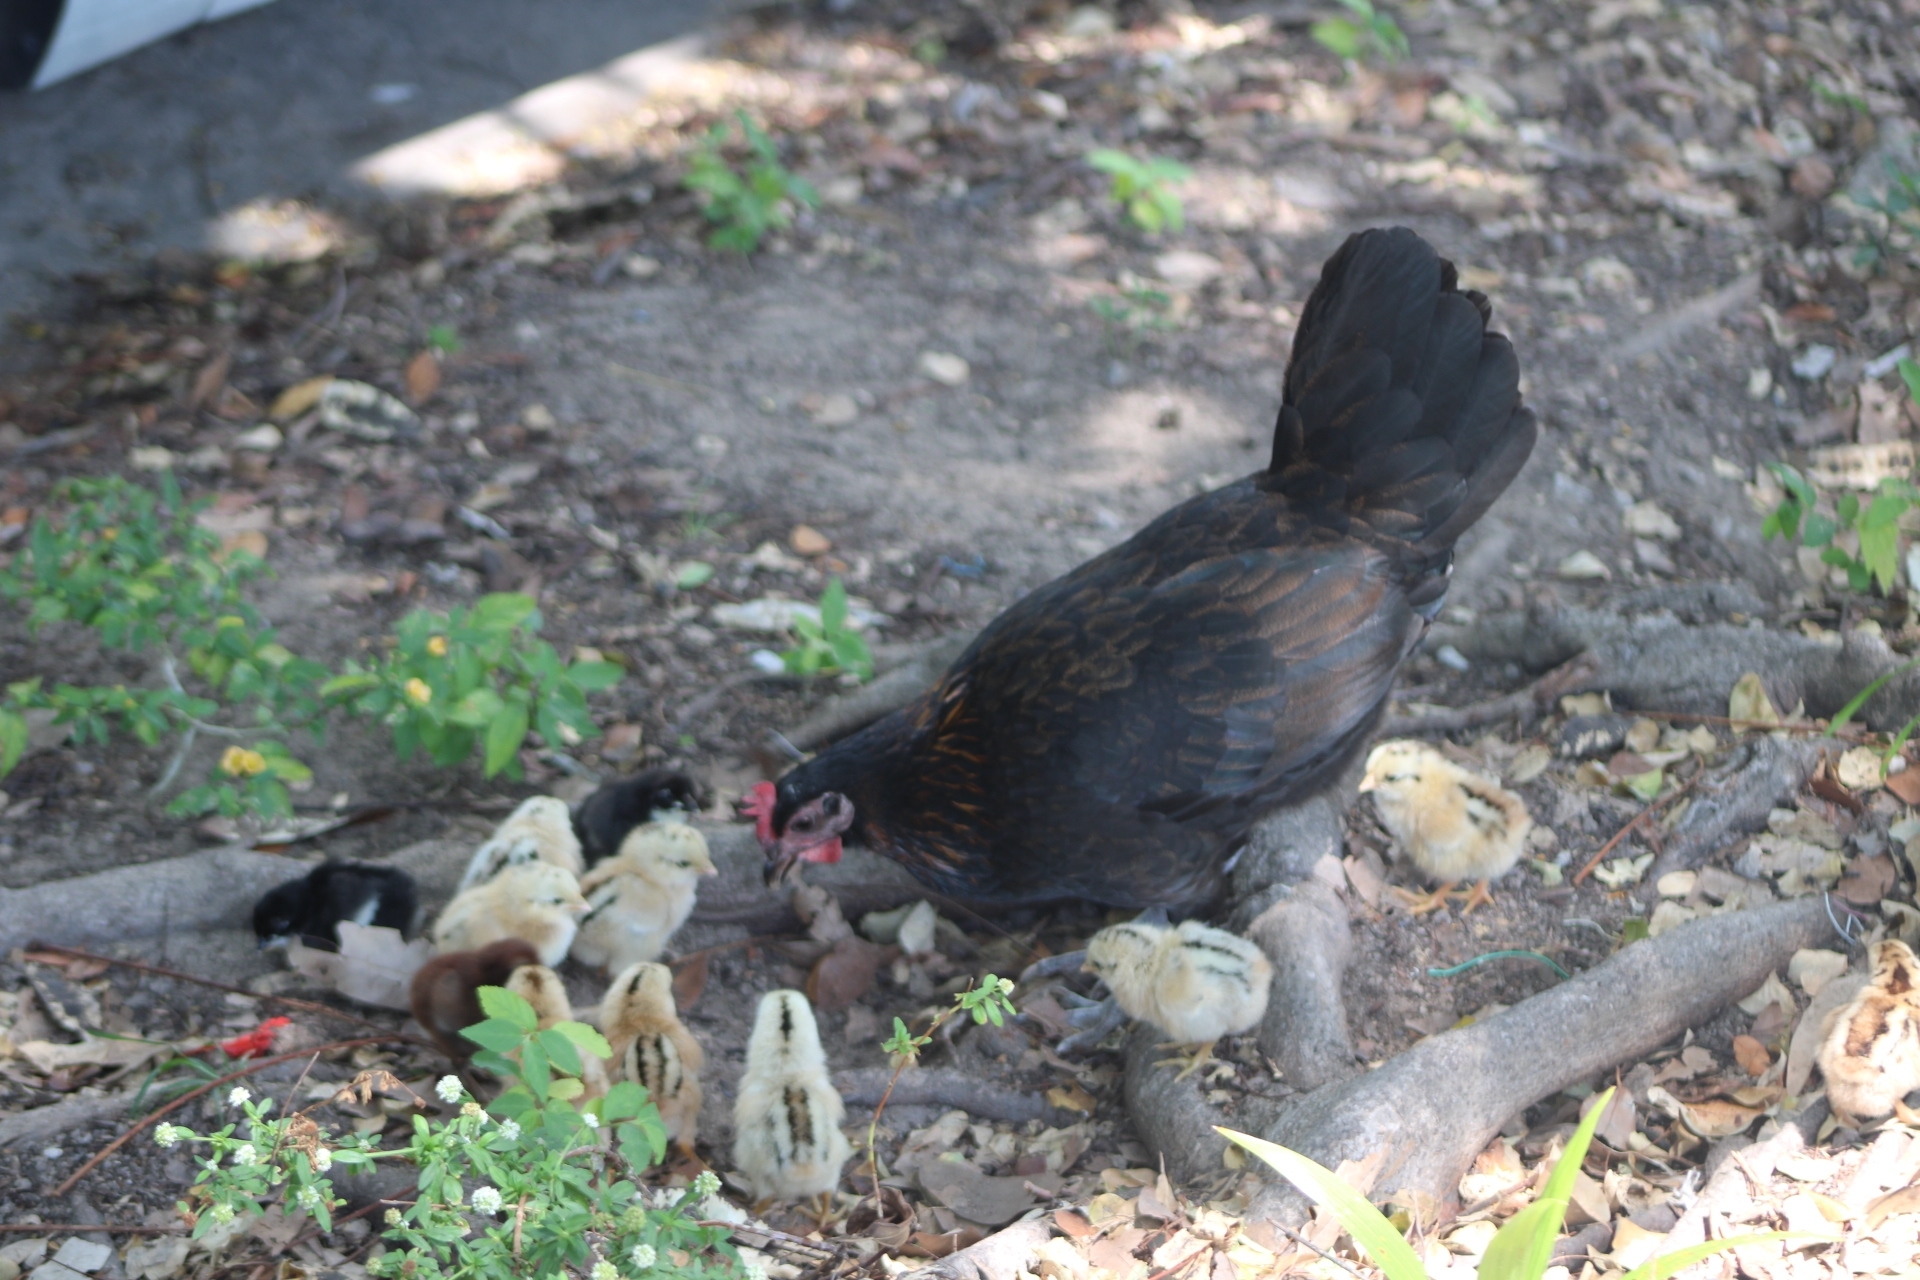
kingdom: Animalia
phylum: Chordata
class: Aves
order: Galliformes
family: Phasianidae
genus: Gallus
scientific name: Gallus gallus
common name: Red junglefowl
